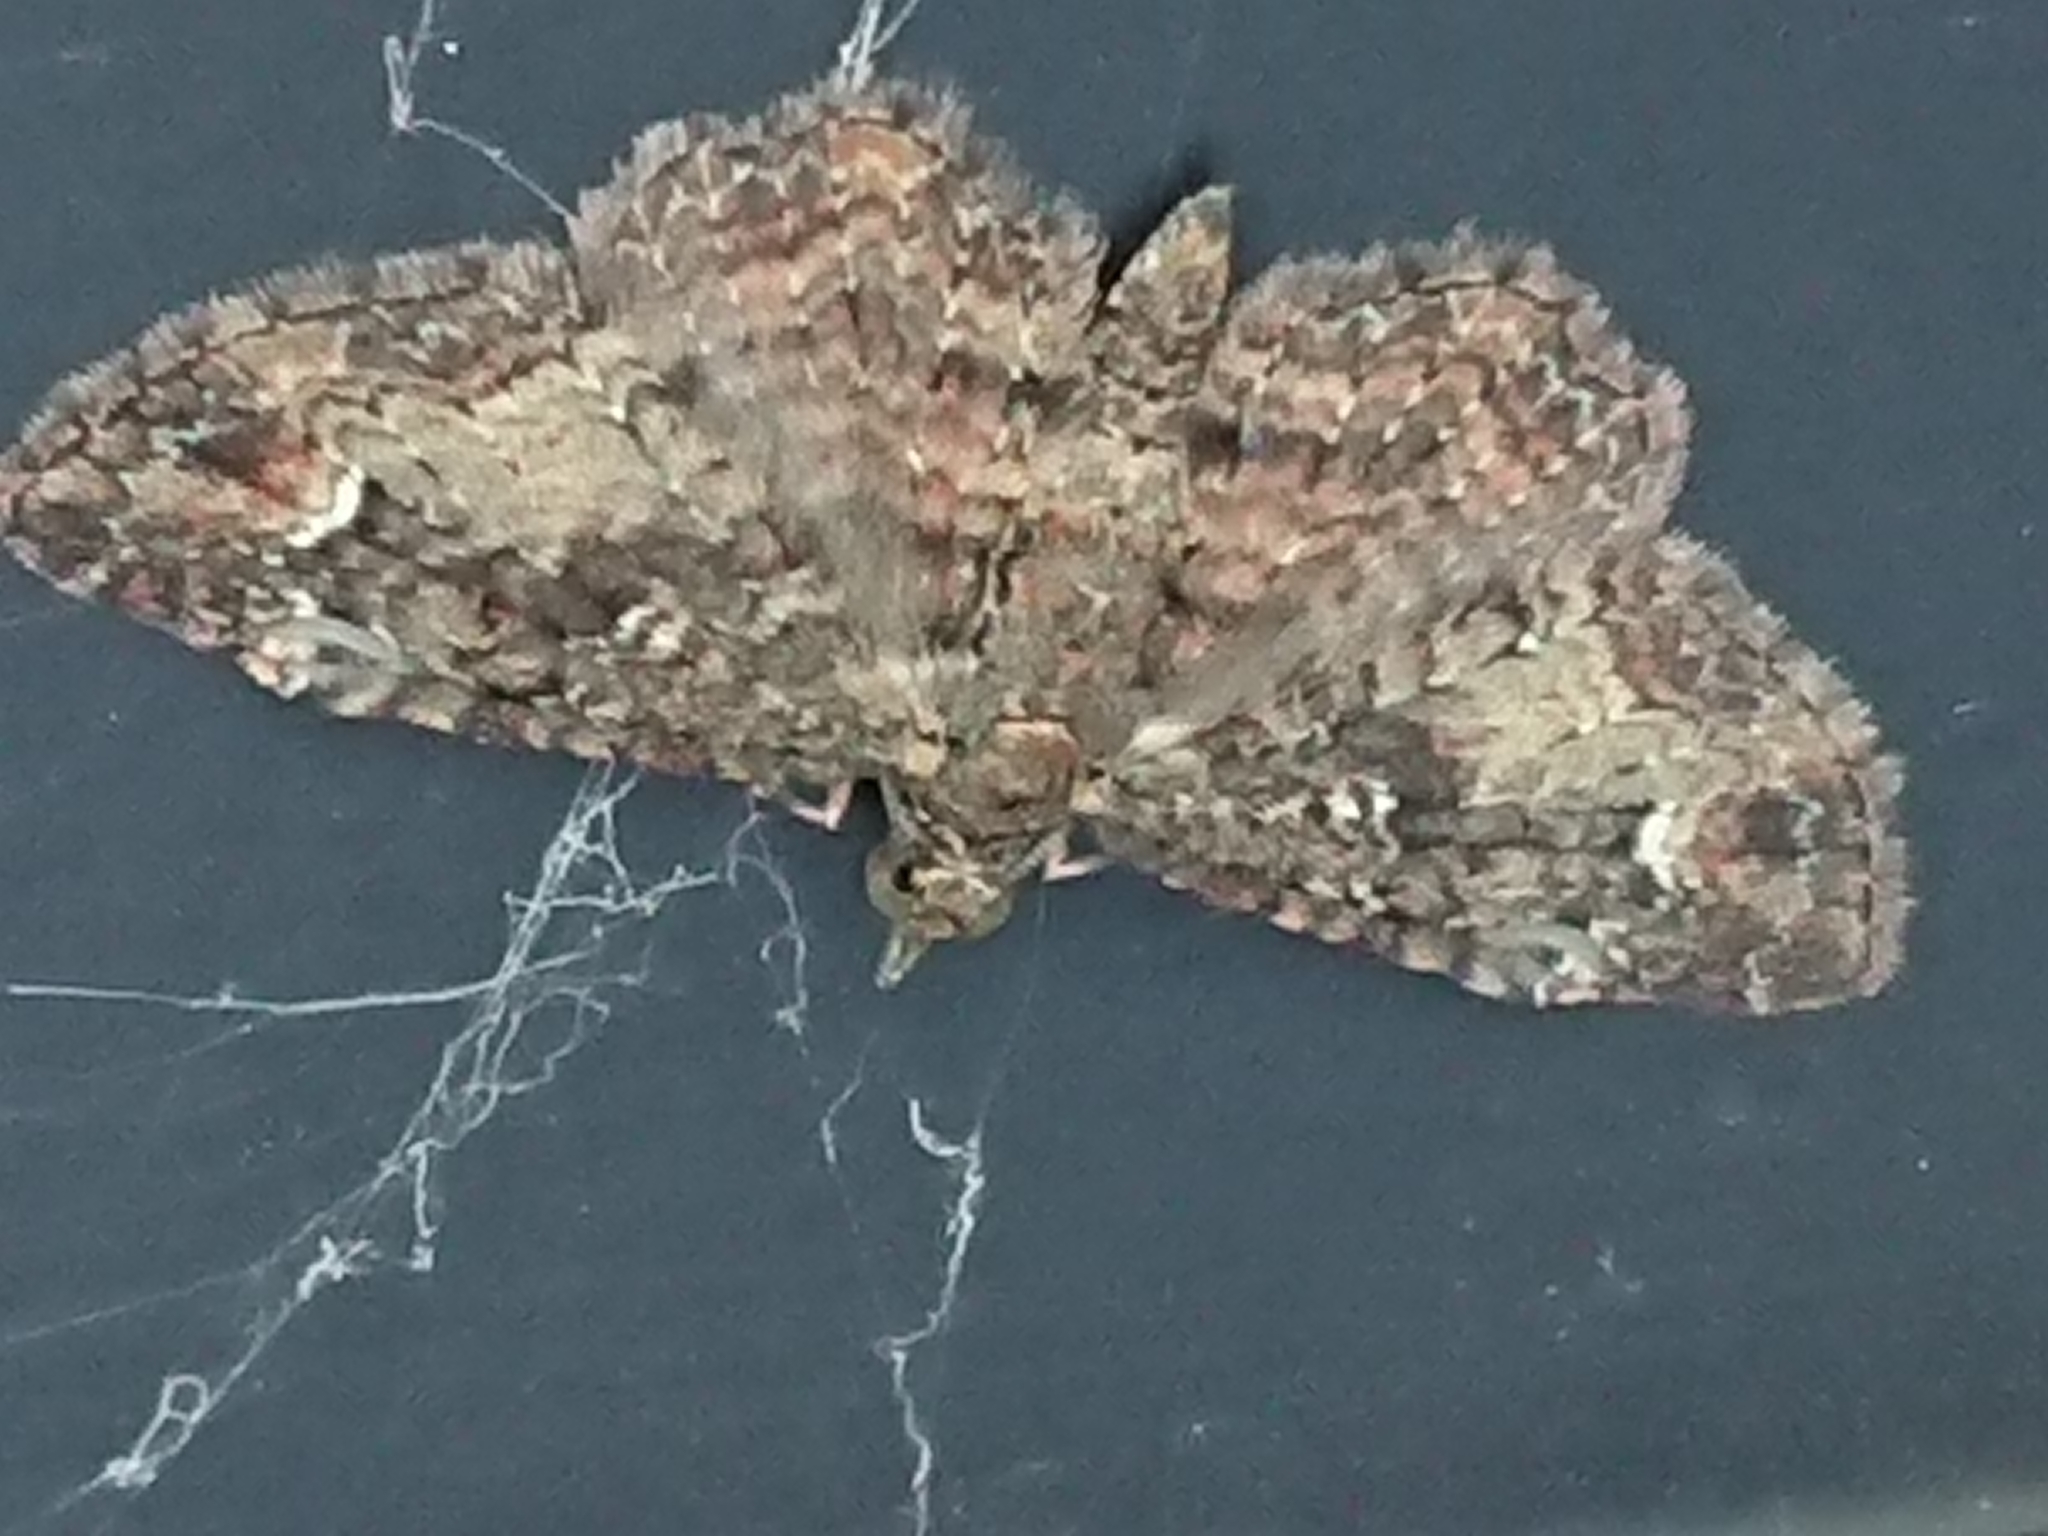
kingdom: Animalia
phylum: Arthropoda
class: Insecta
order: Lepidoptera
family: Geometridae
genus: Pasiphilodes
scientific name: Pasiphilodes testulata
